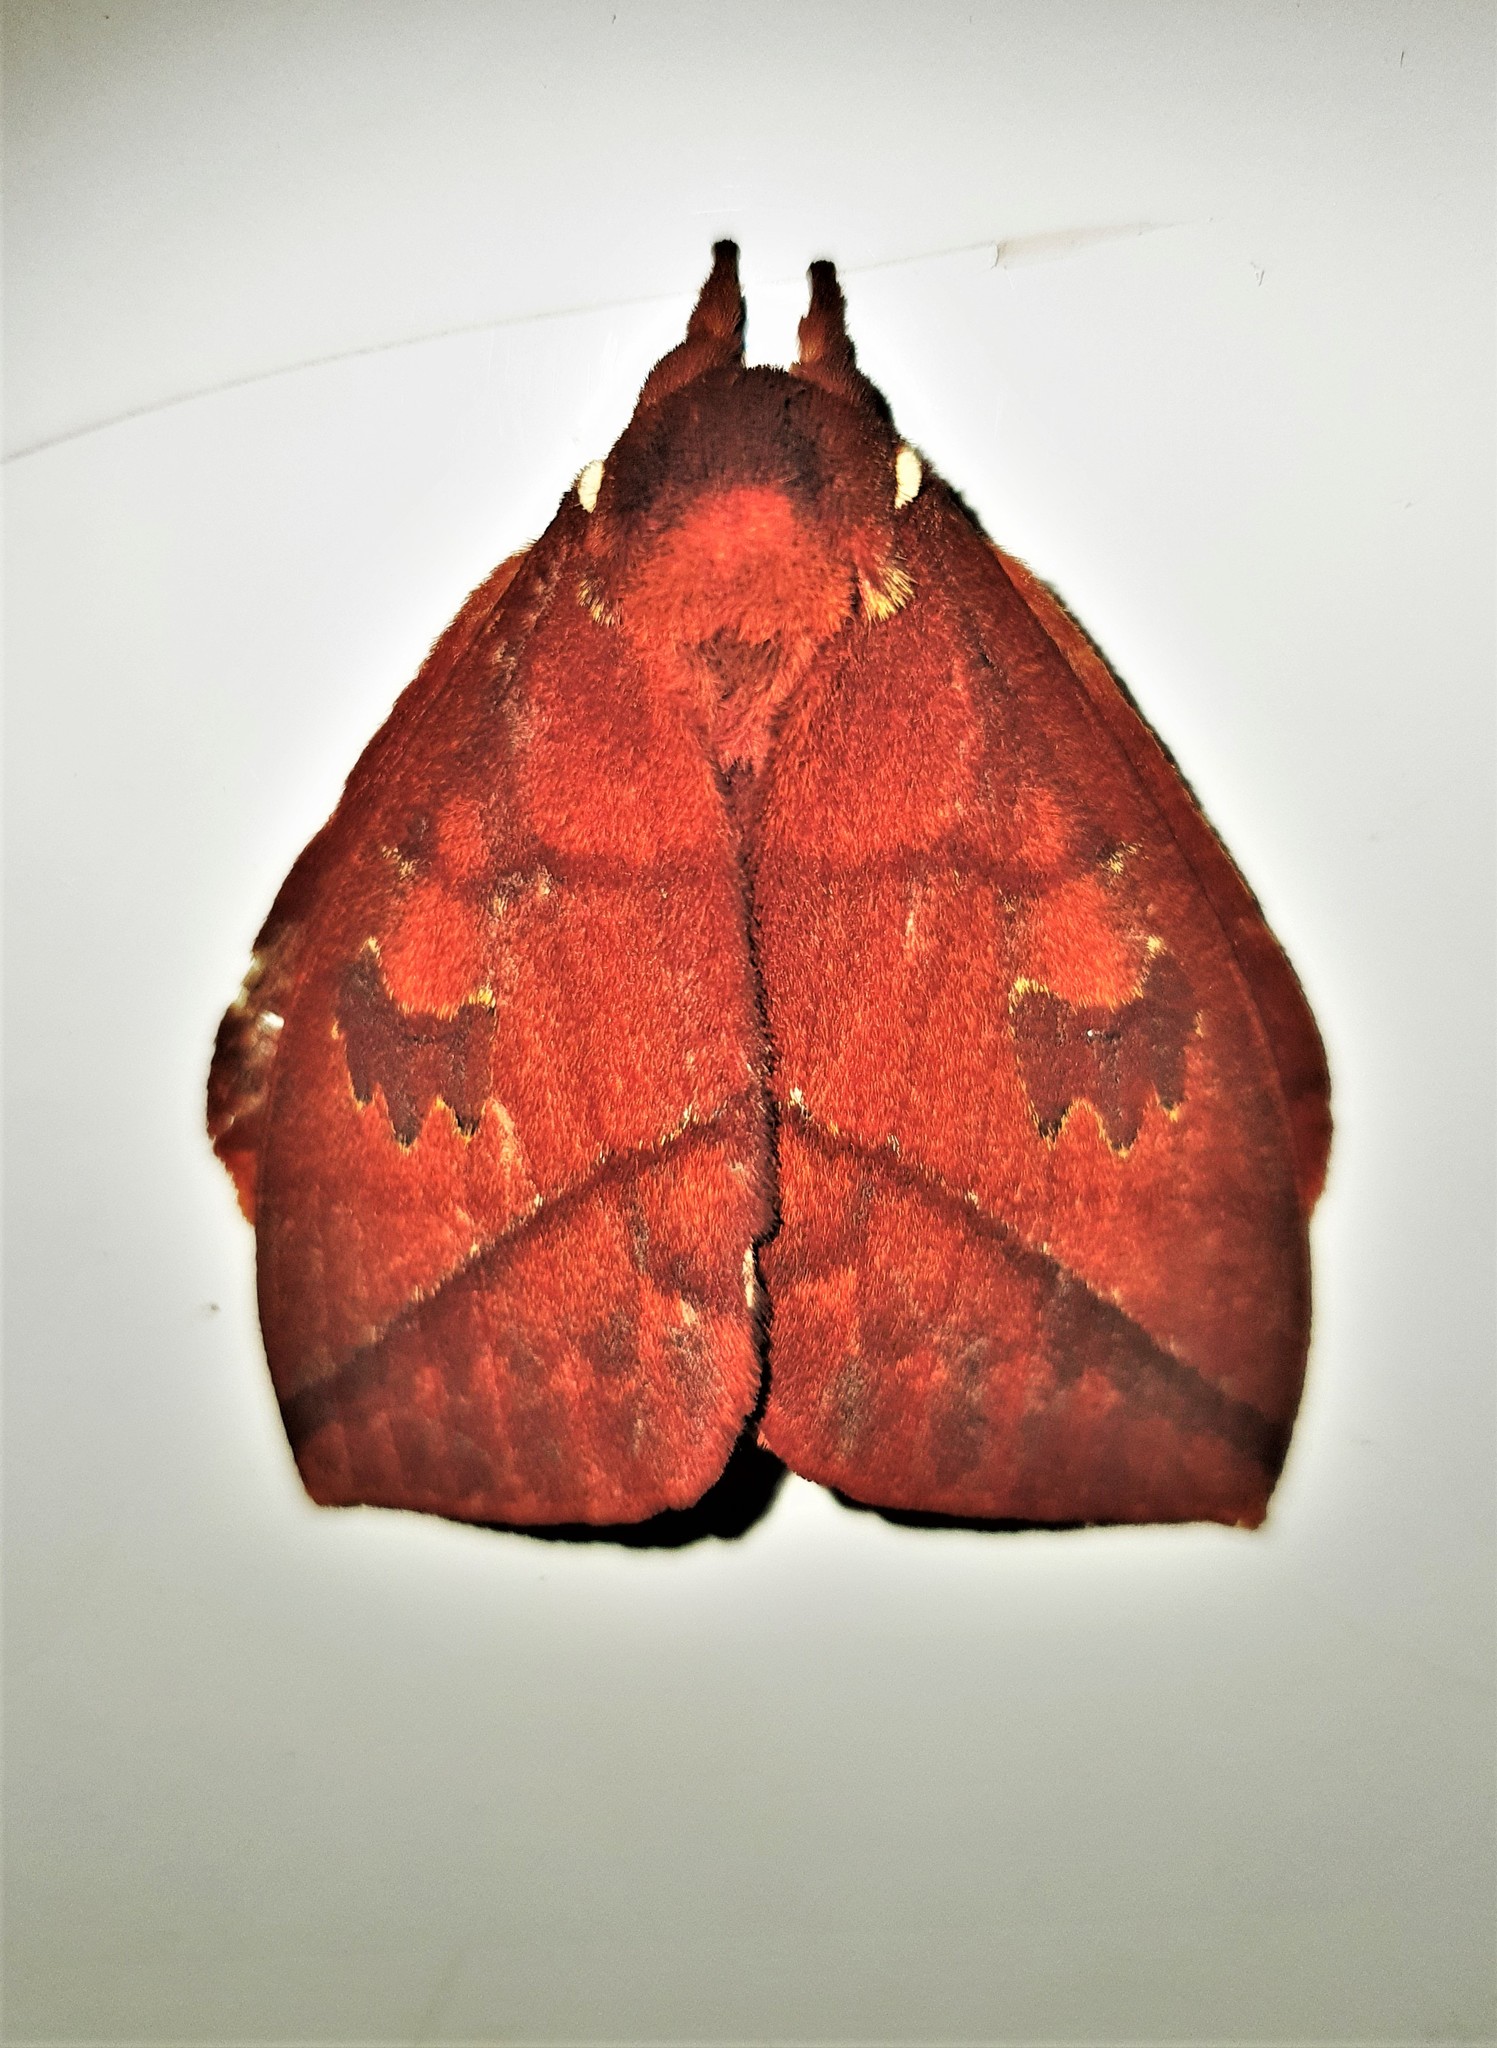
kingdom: Animalia
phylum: Arthropoda
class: Insecta
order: Lepidoptera
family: Saturniidae
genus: Pseudautomeris
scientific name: Pseudautomeris salmonea
